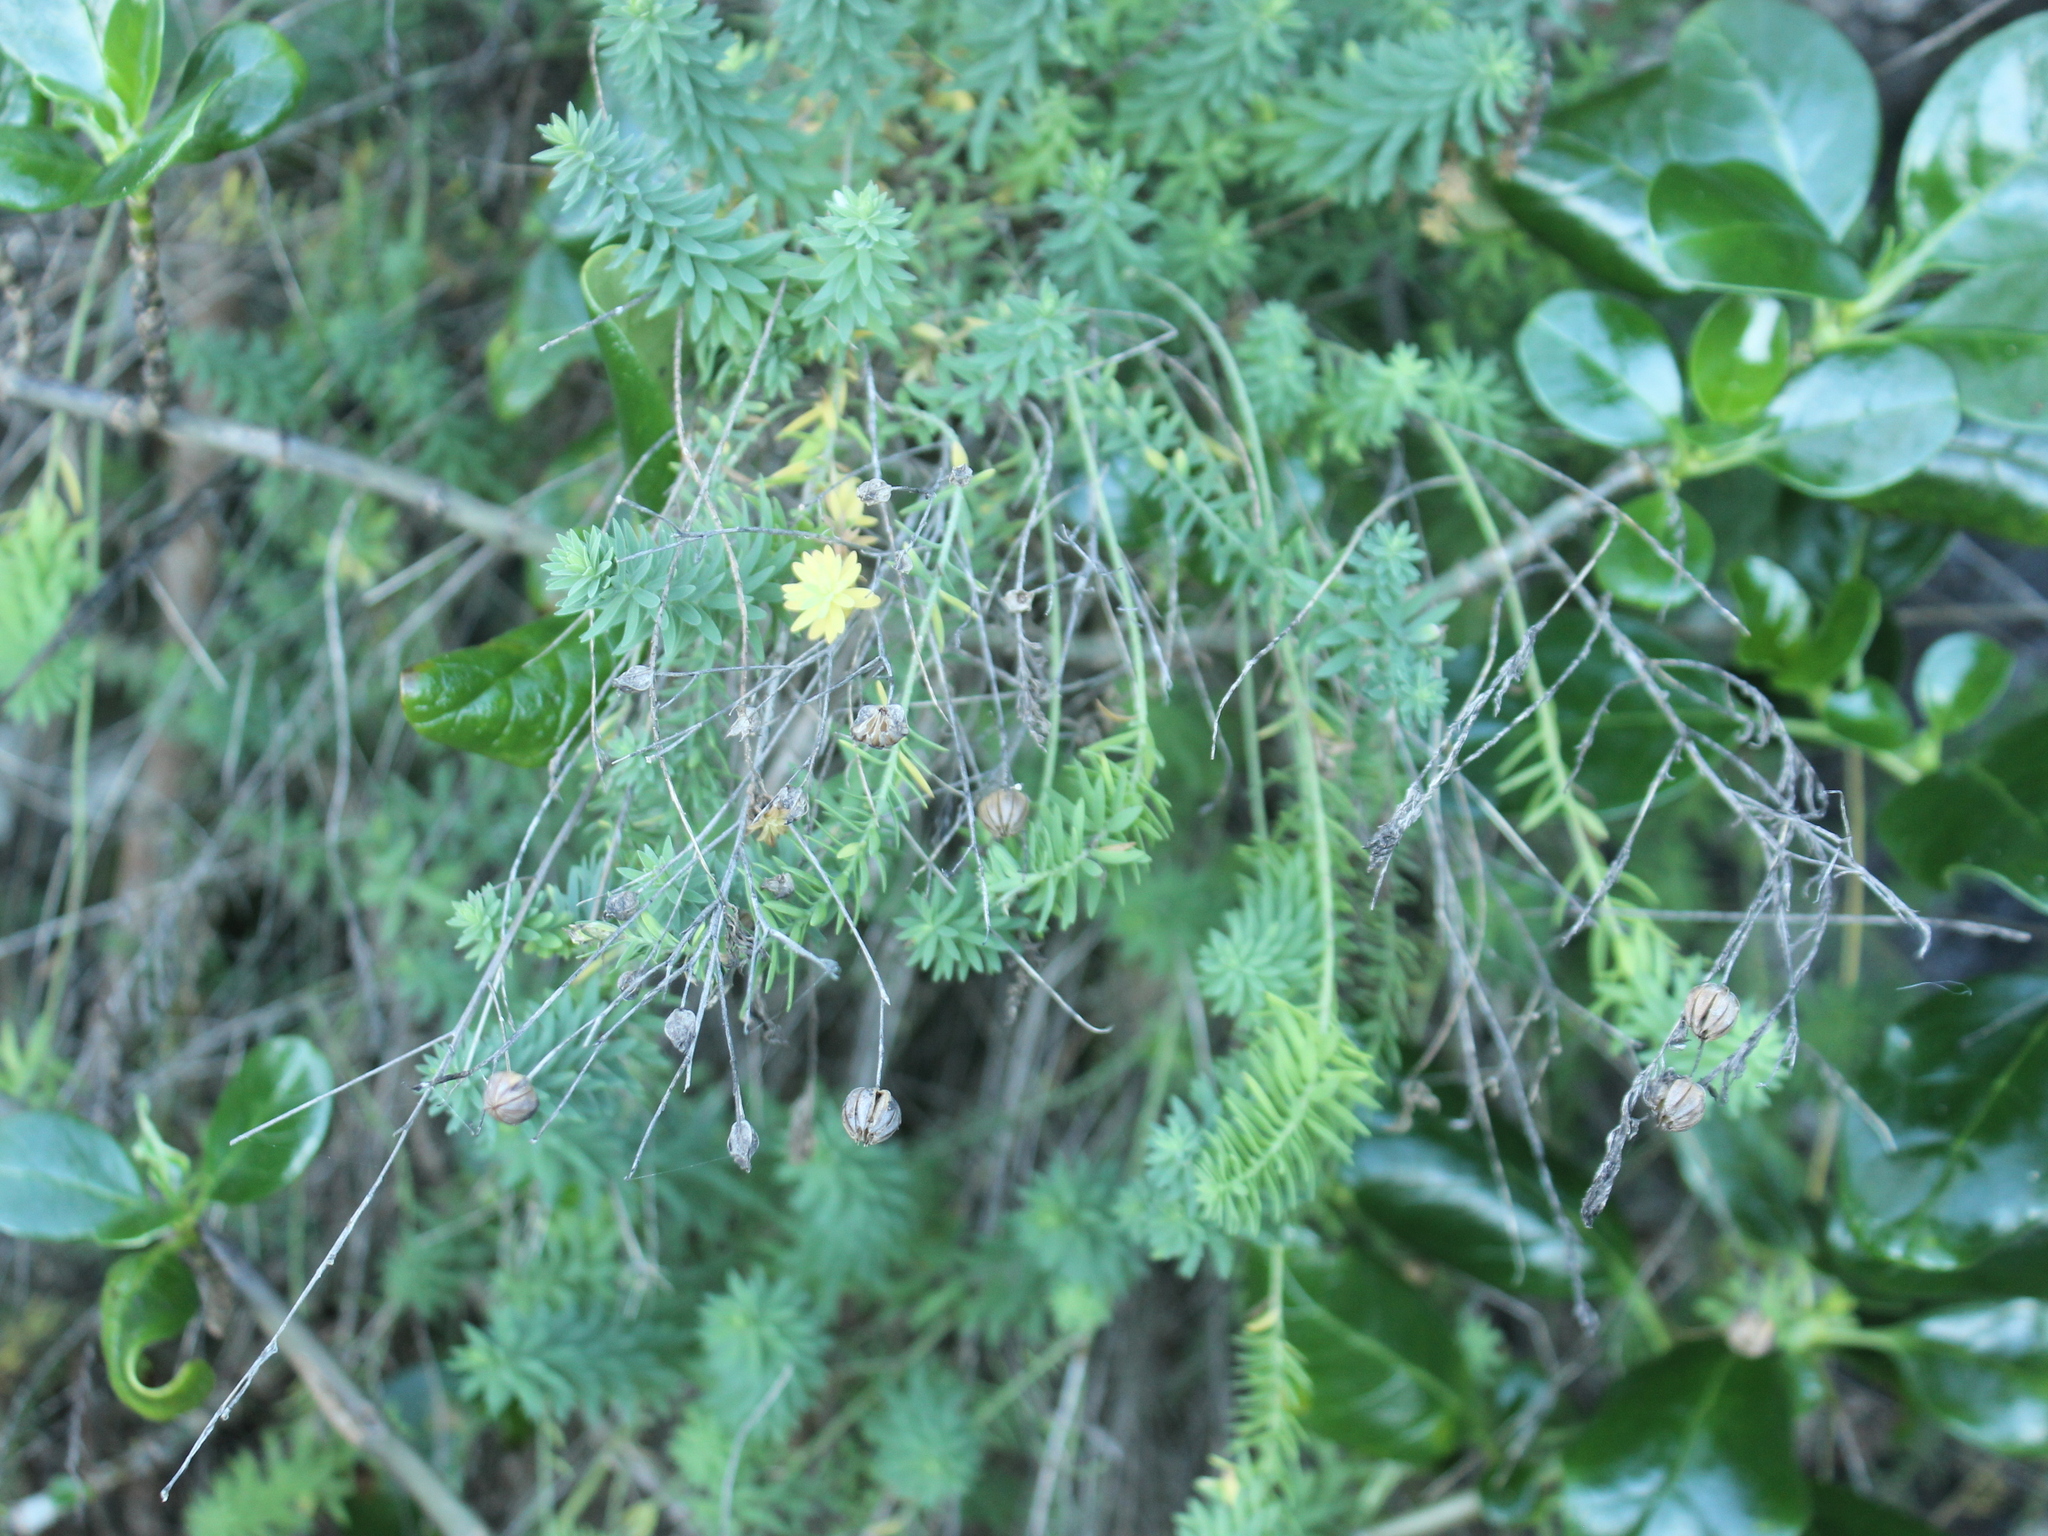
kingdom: Plantae
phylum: Tracheophyta
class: Magnoliopsida
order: Malpighiales
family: Linaceae
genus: Linum
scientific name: Linum monogynum
